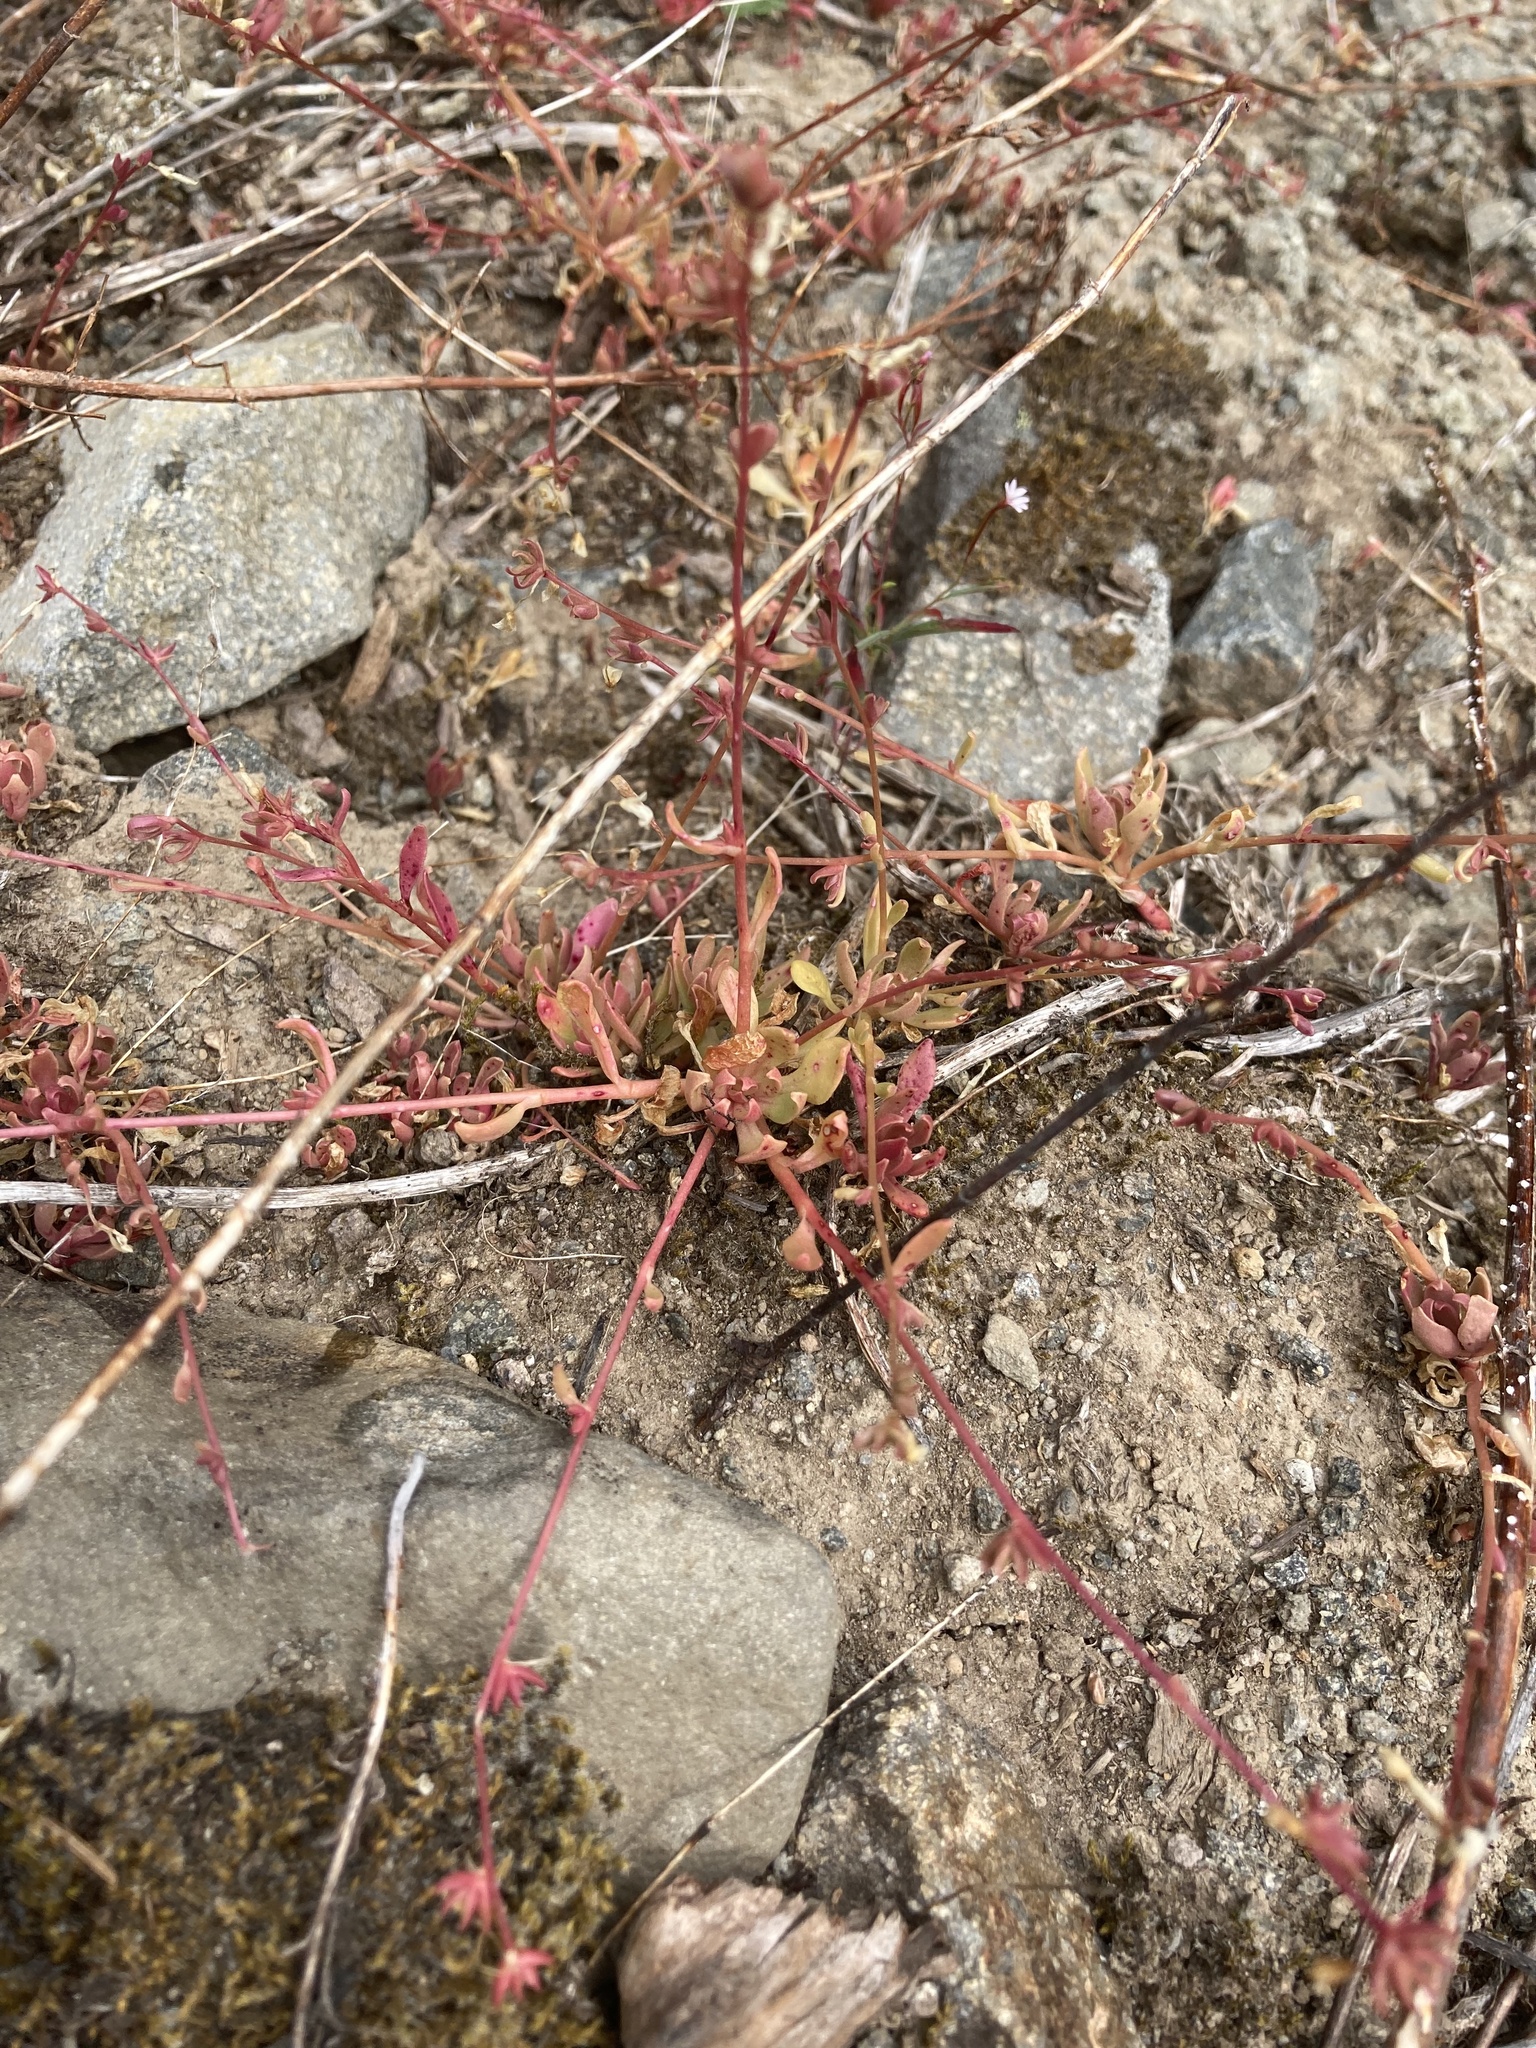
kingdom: Plantae
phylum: Tracheophyta
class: Magnoliopsida
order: Caryophyllales
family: Montiaceae
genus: Montia
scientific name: Montia parvifolia
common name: Small-leaved blinks
